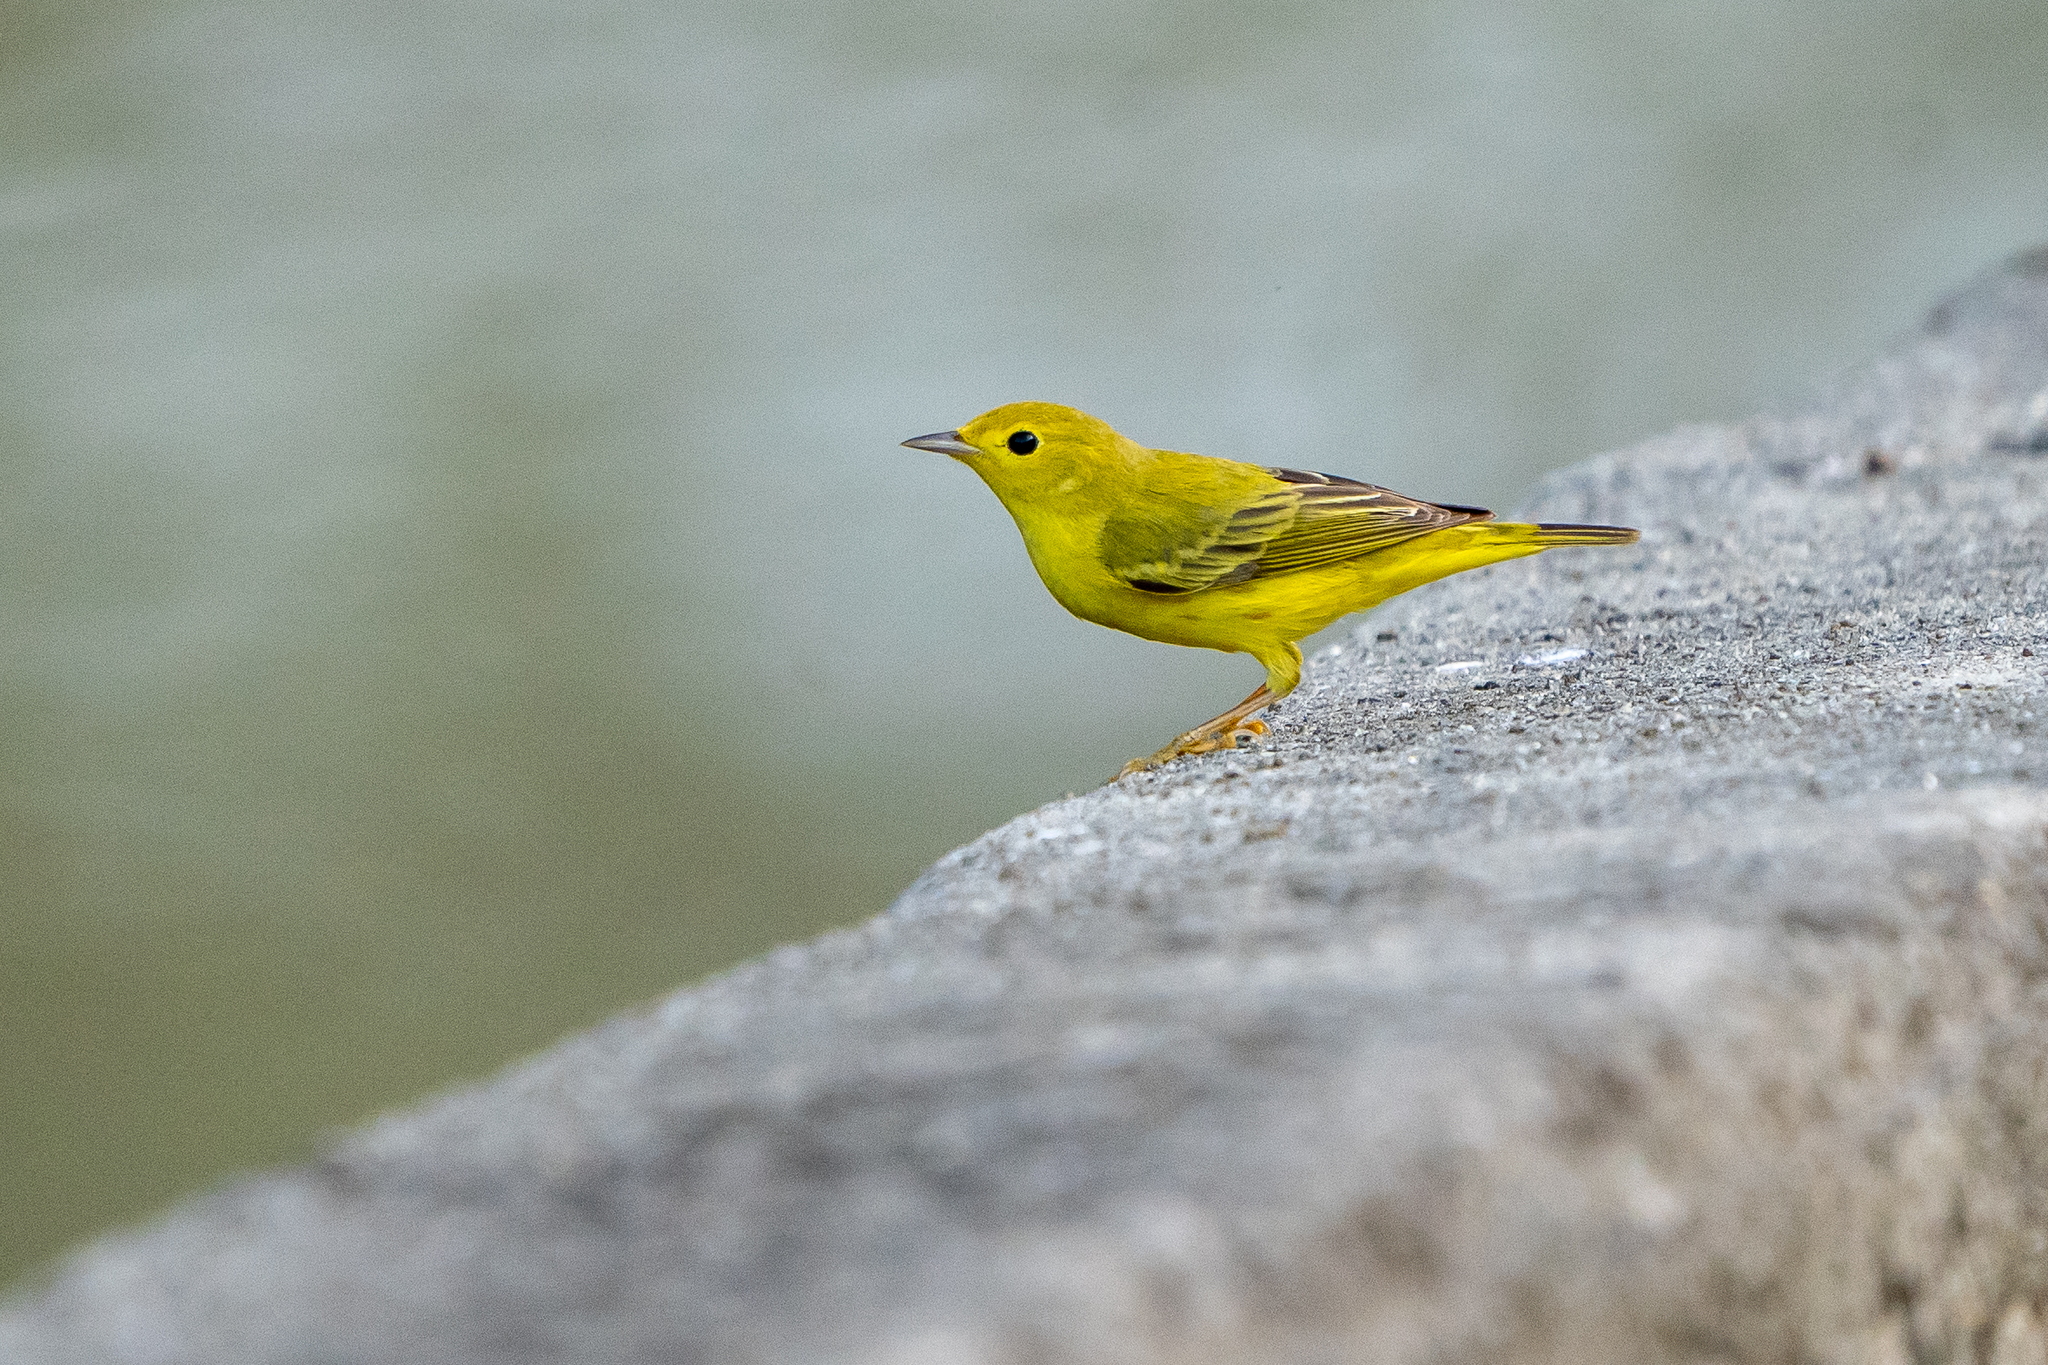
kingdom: Animalia
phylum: Chordata
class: Aves
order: Passeriformes
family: Parulidae
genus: Setophaga
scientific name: Setophaga petechia
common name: Yellow warbler
